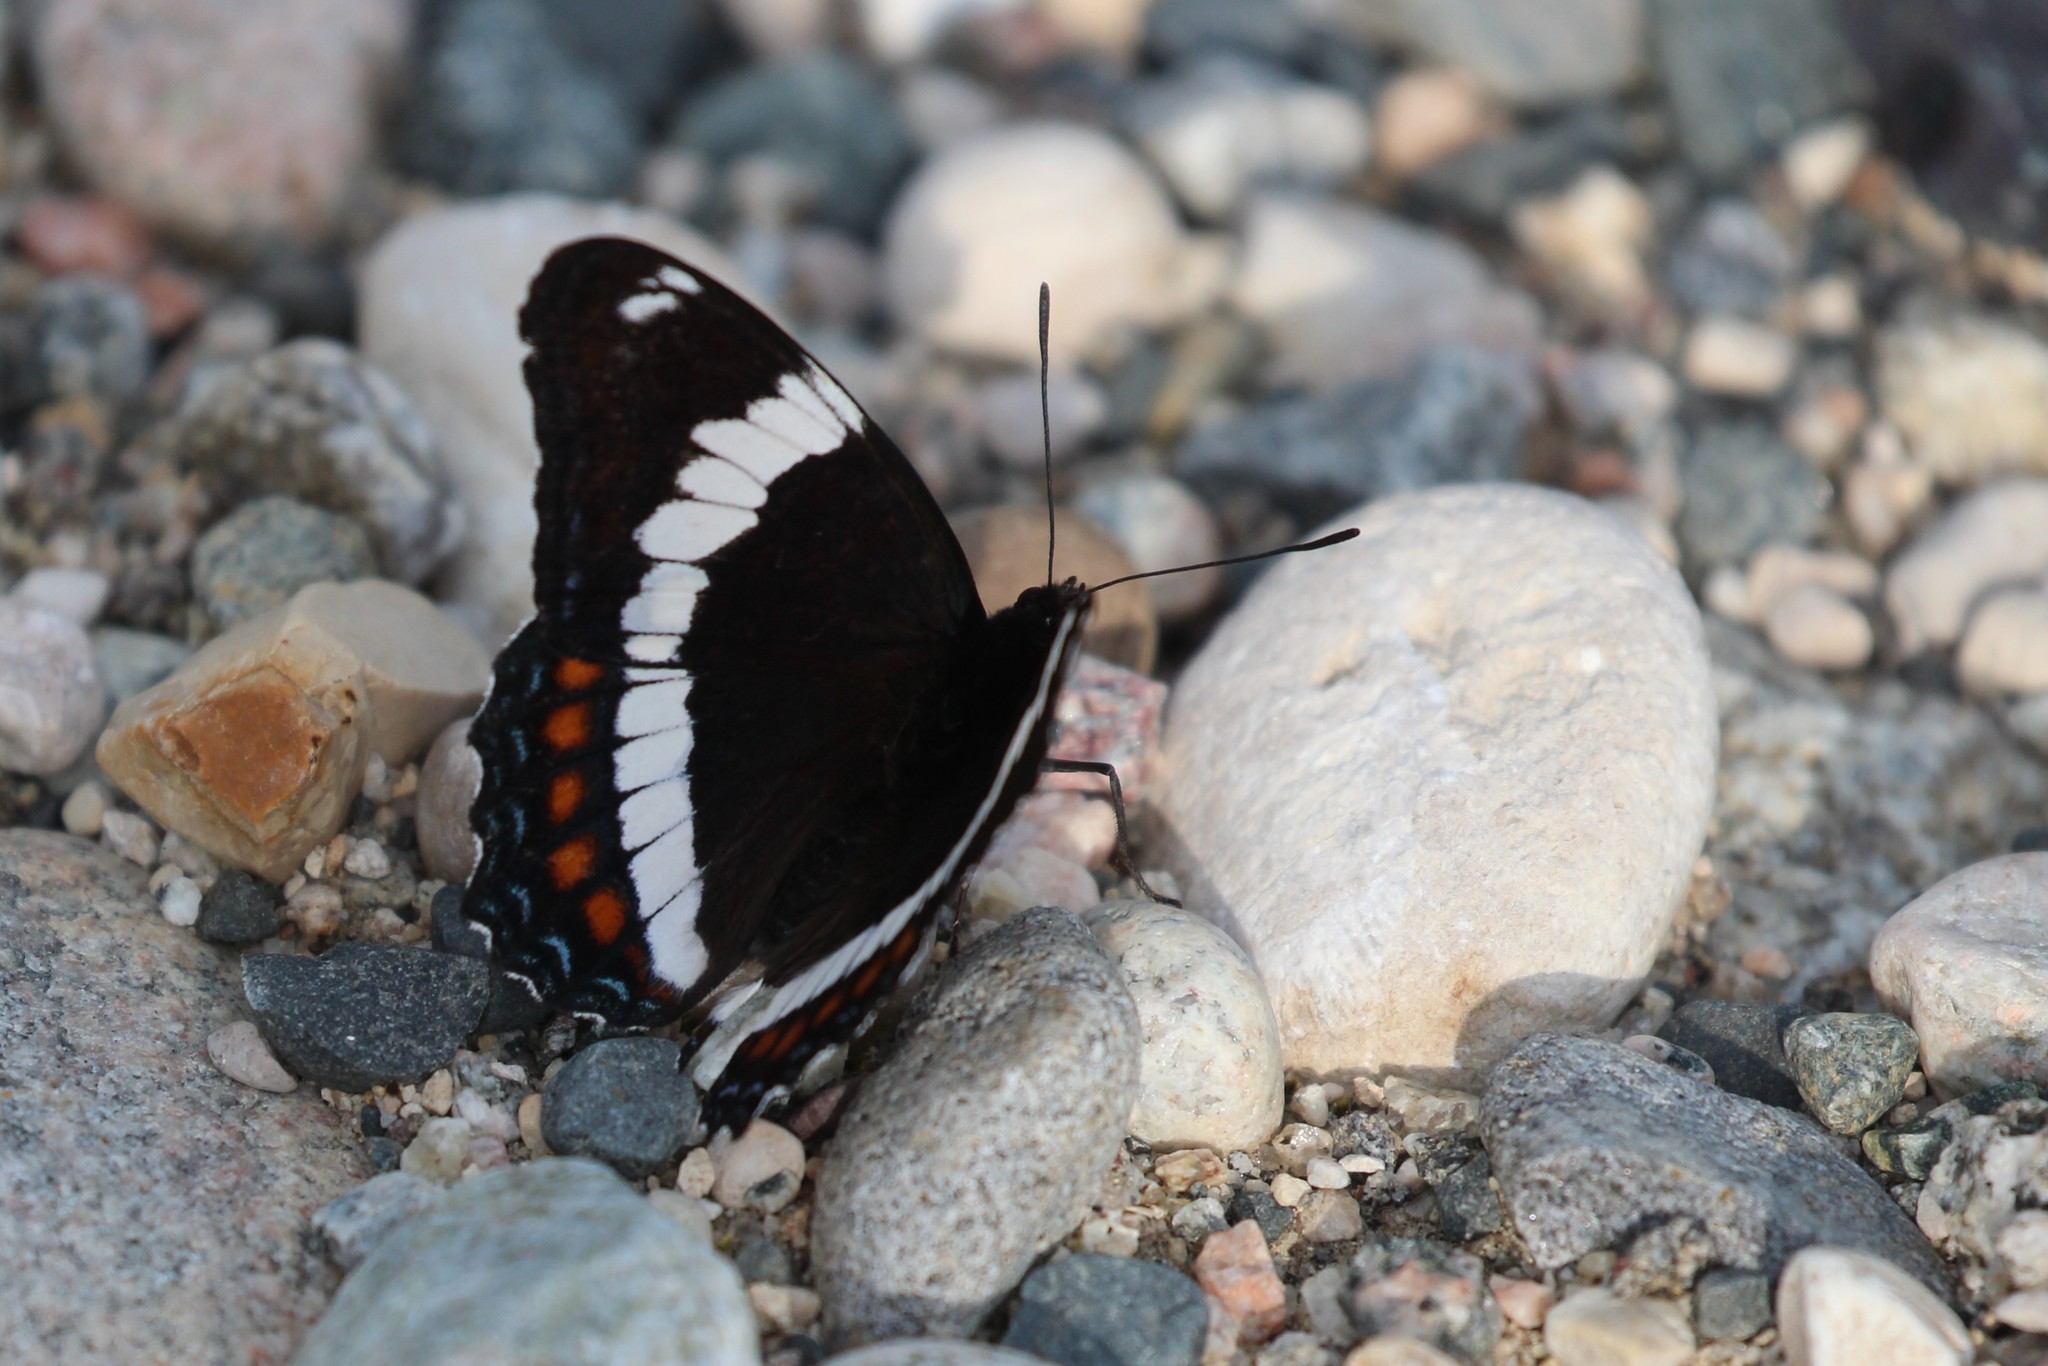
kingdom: Animalia
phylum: Arthropoda
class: Insecta
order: Lepidoptera
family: Nymphalidae
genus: Limenitis
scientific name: Limenitis arthemis
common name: Red-spotted admiral
